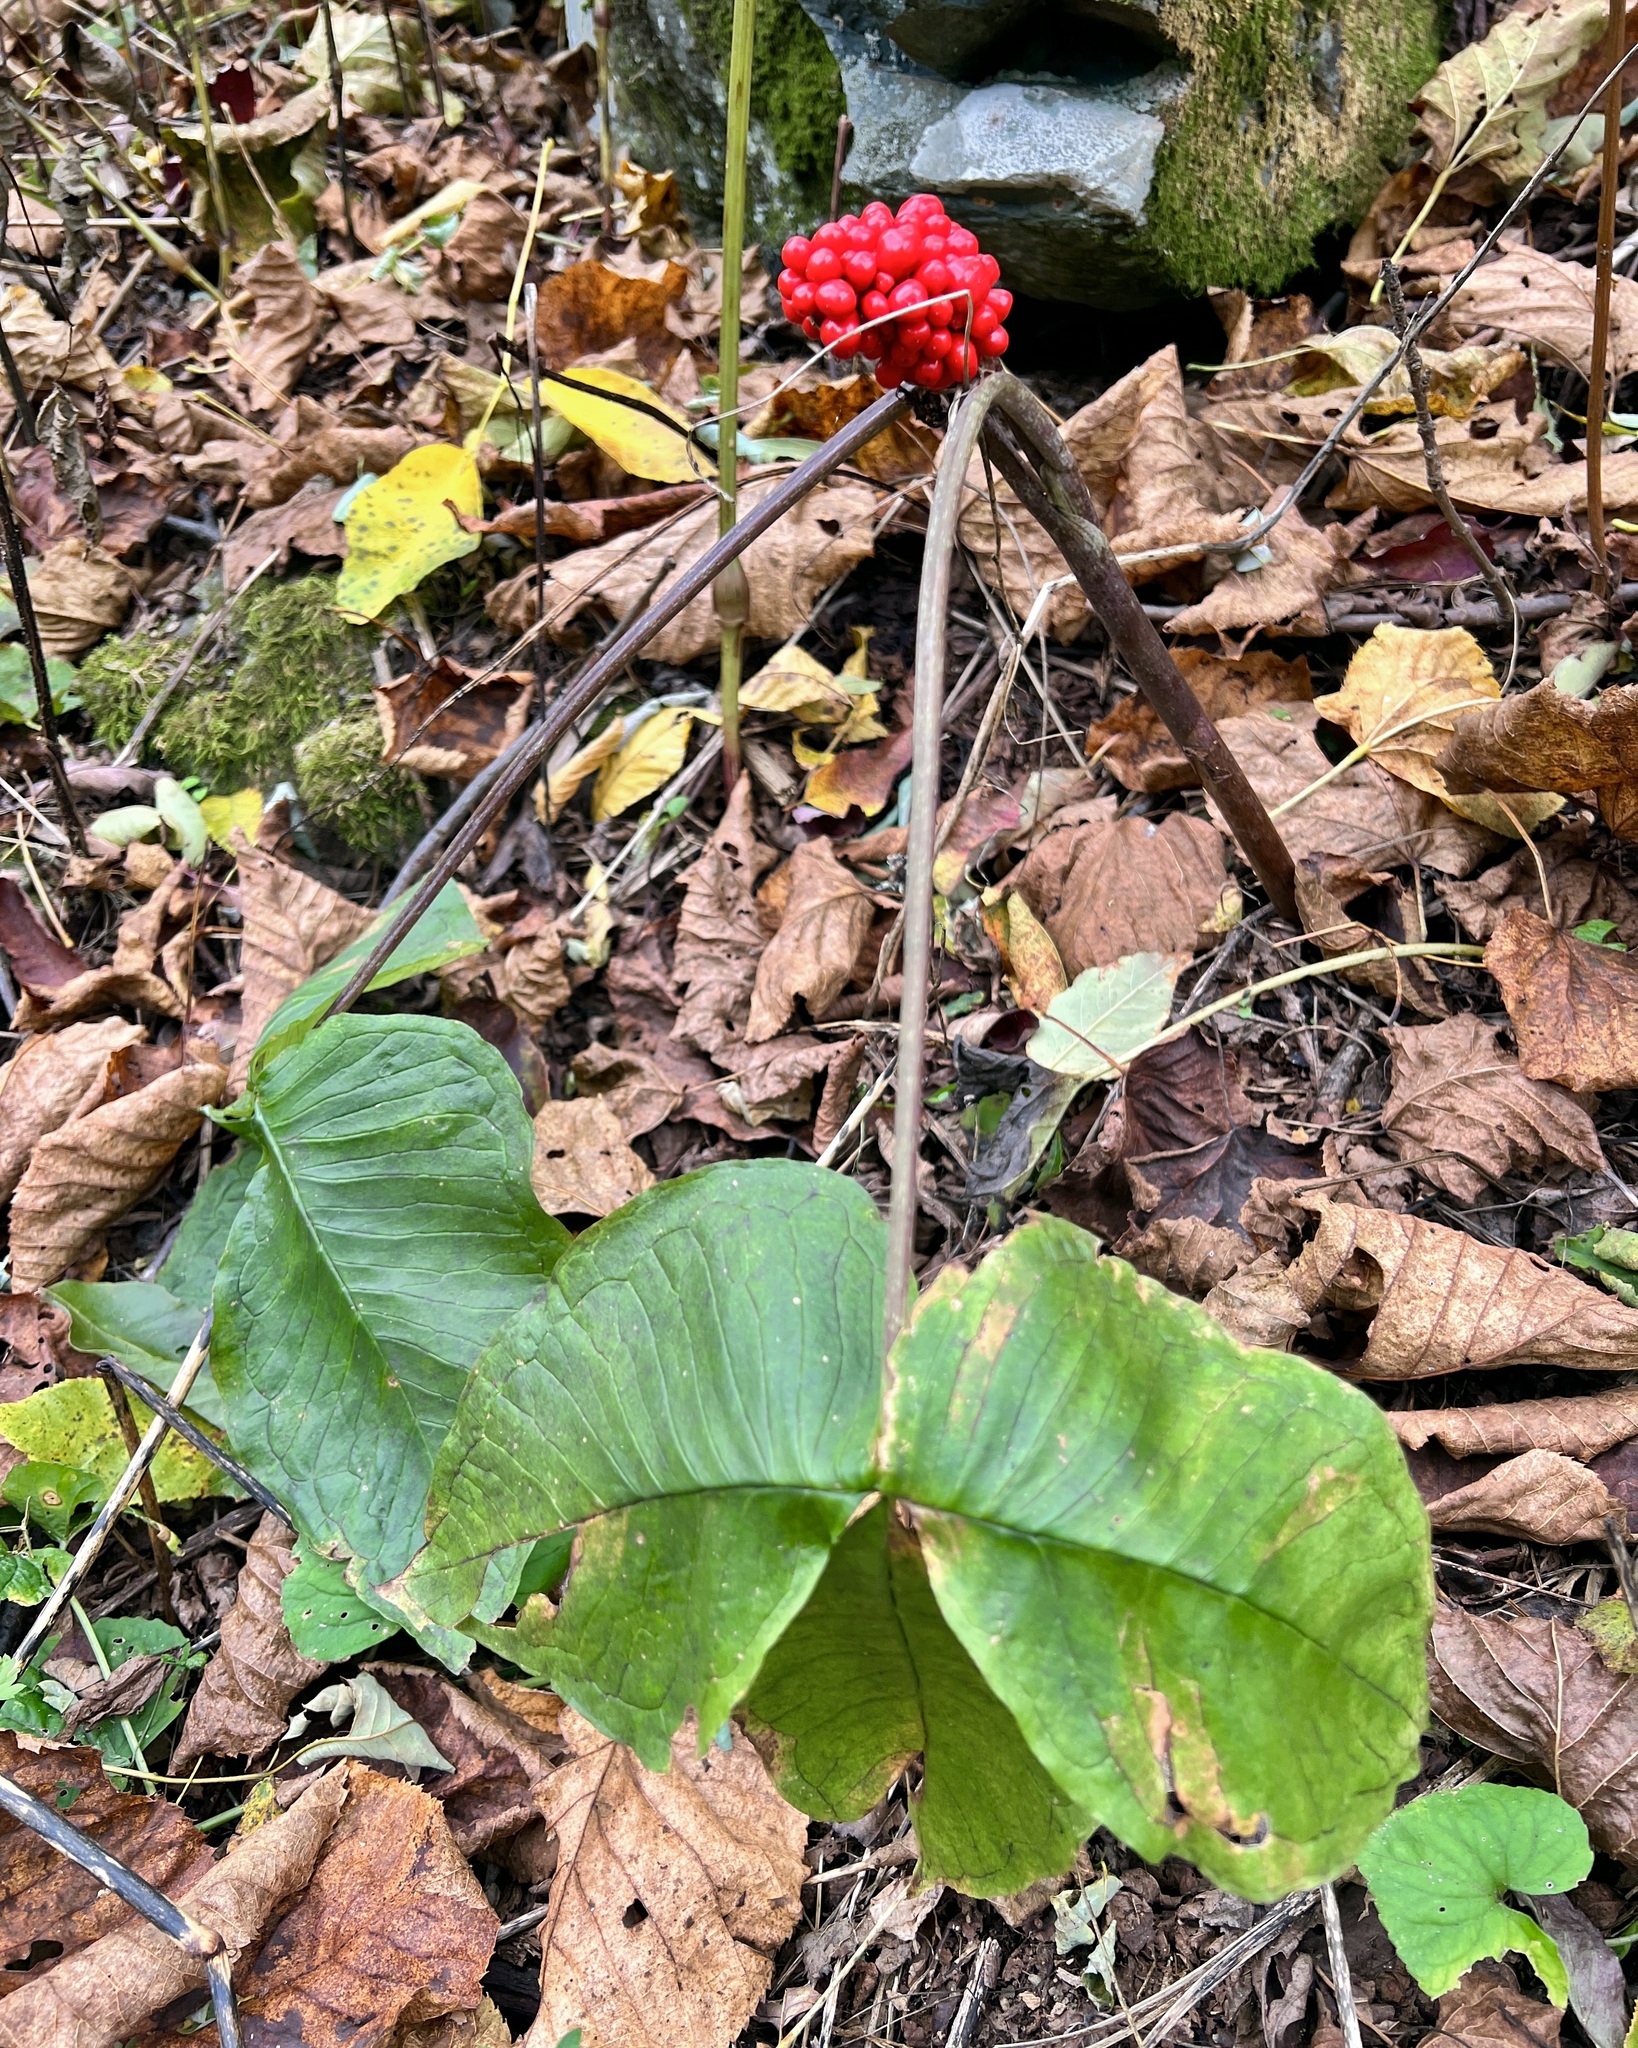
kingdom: Plantae
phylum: Tracheophyta
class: Liliopsida
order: Alismatales
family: Araceae
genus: Arisaema
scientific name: Arisaema triphyllum
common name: Jack-in-the-pulpit
